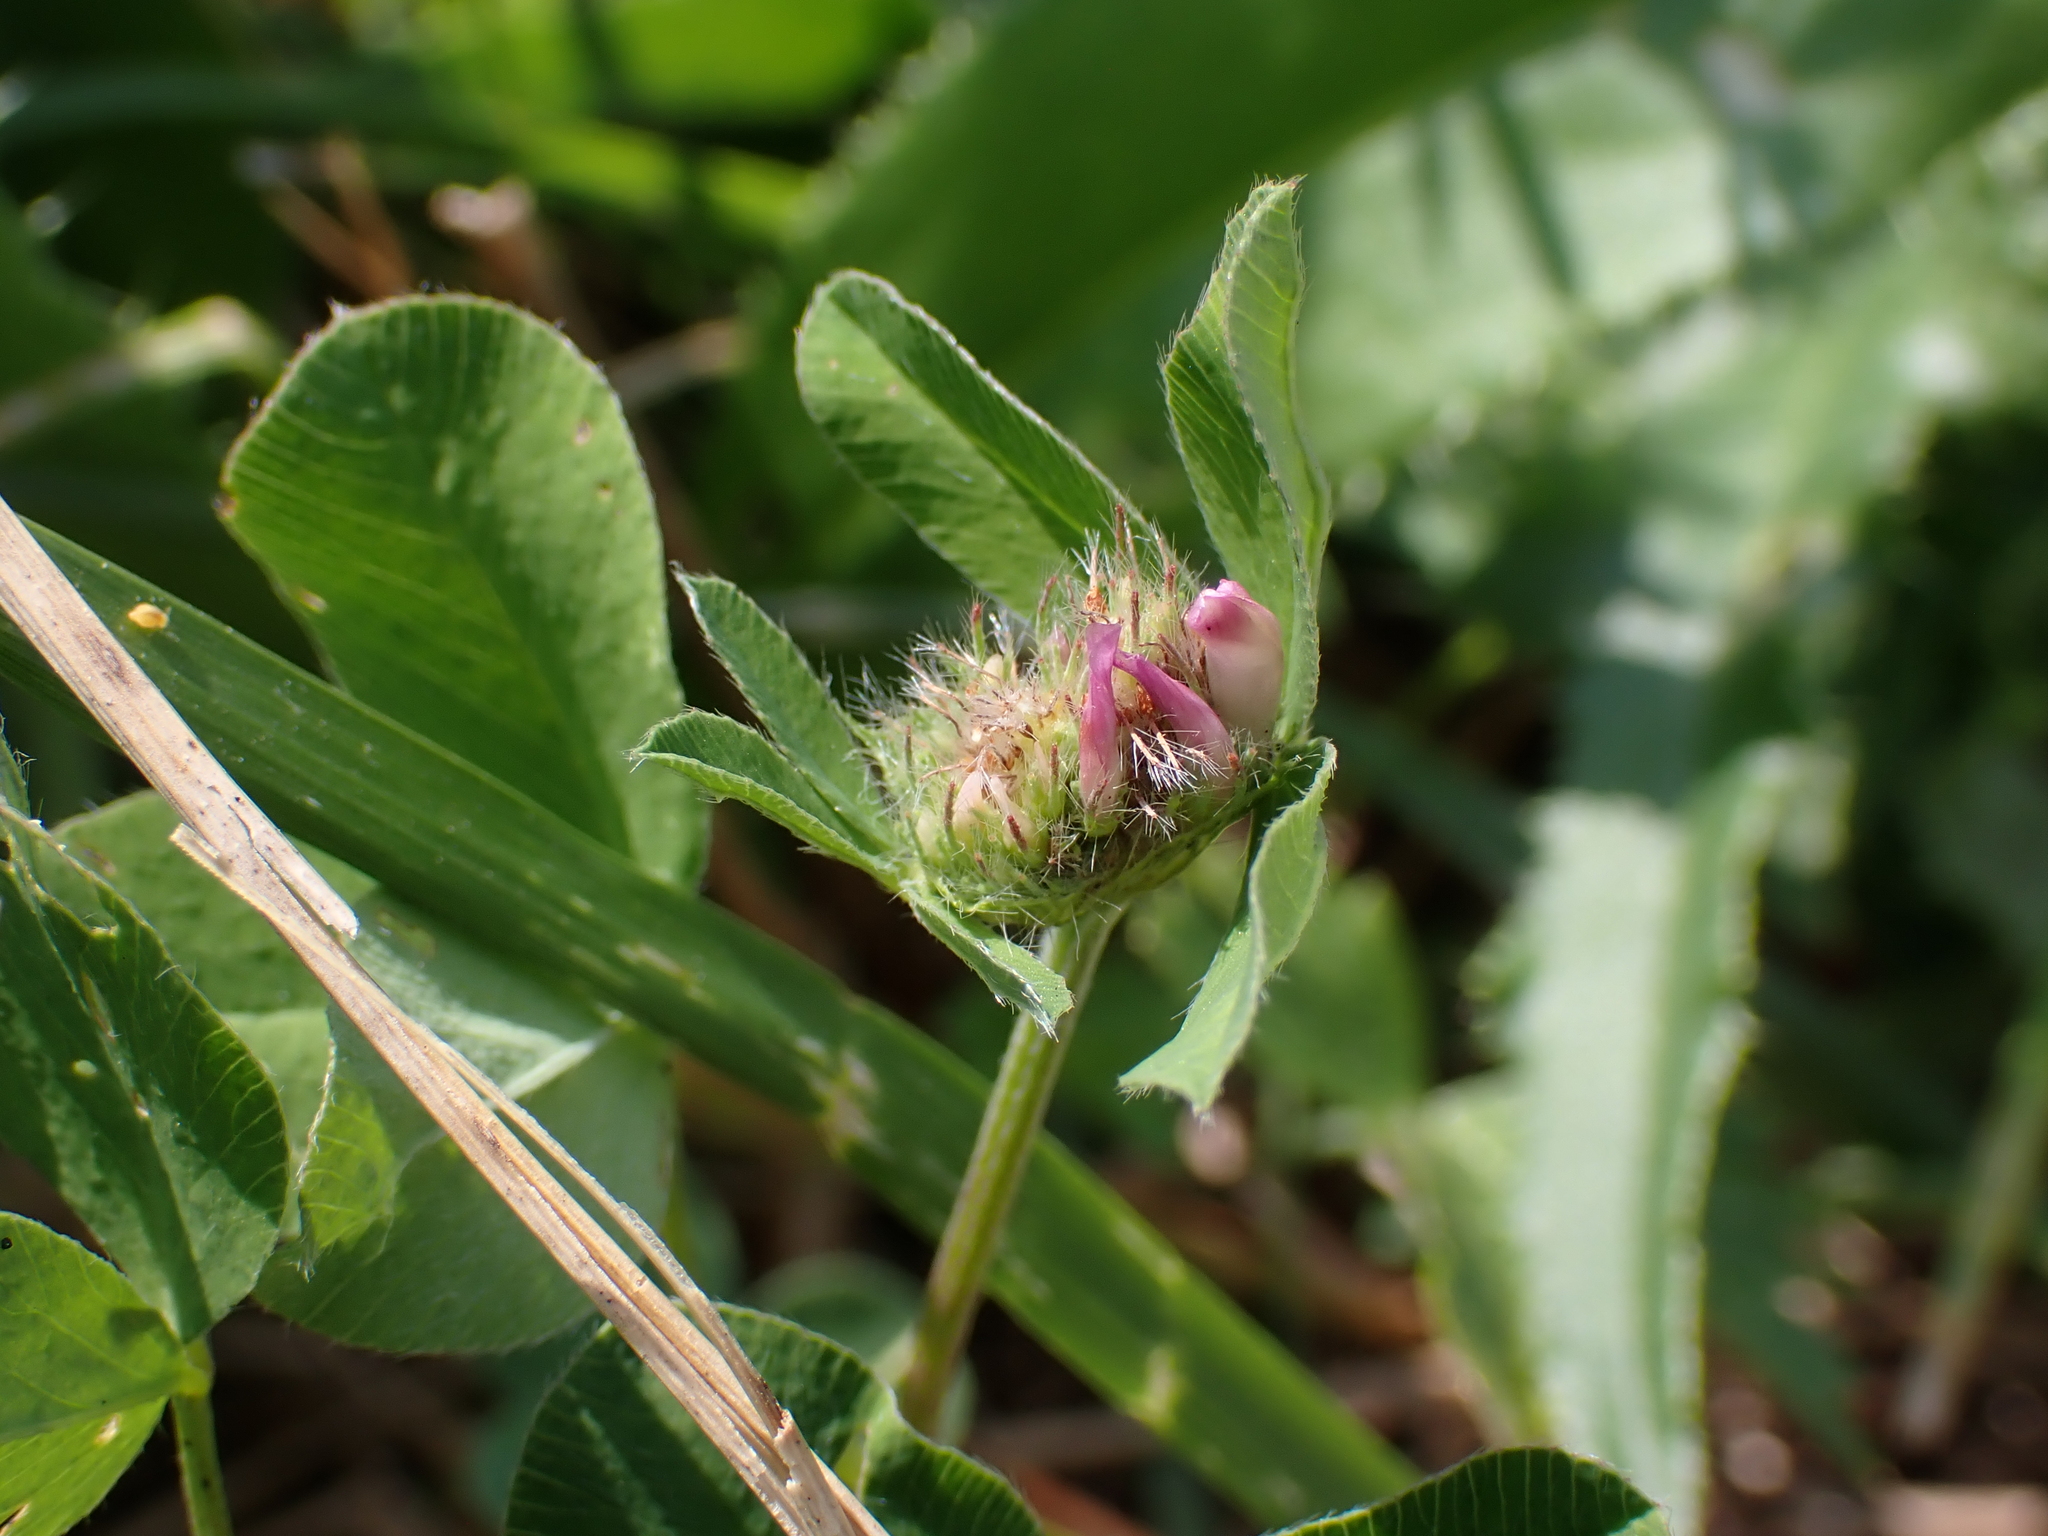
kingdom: Plantae
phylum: Tracheophyta
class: Magnoliopsida
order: Fabales
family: Fabaceae
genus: Trifolium
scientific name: Trifolium pratense
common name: Red clover
